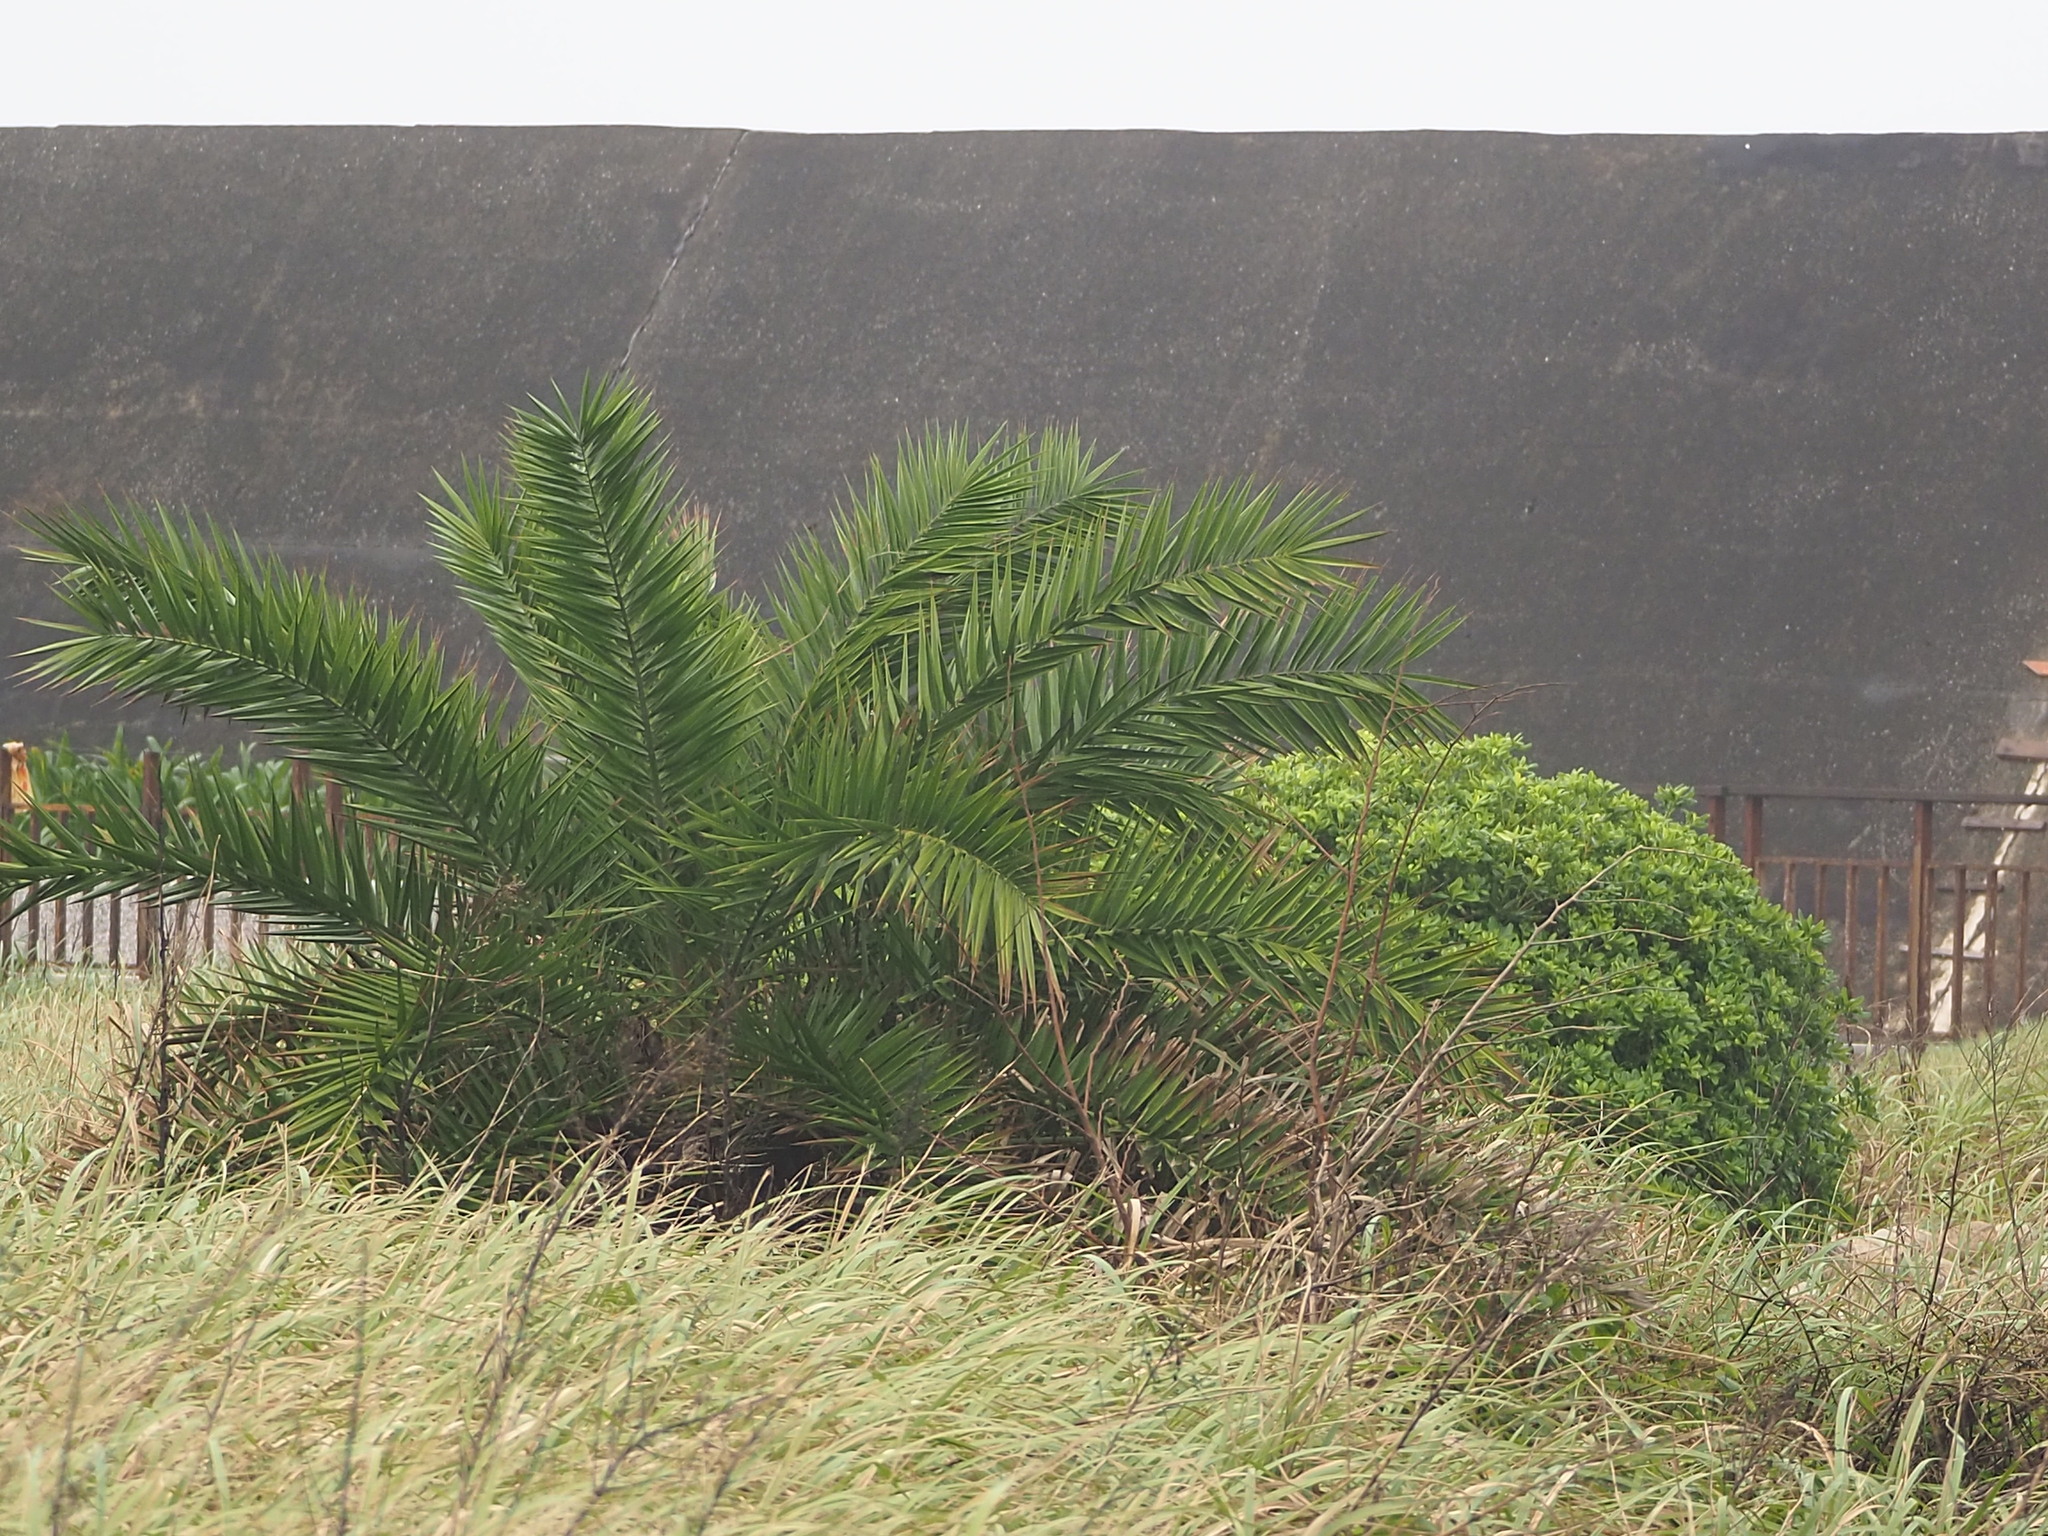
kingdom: Plantae
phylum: Tracheophyta
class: Liliopsida
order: Arecales
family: Arecaceae
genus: Phoenix
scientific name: Phoenix loureiroi
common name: Loureiro's palm
